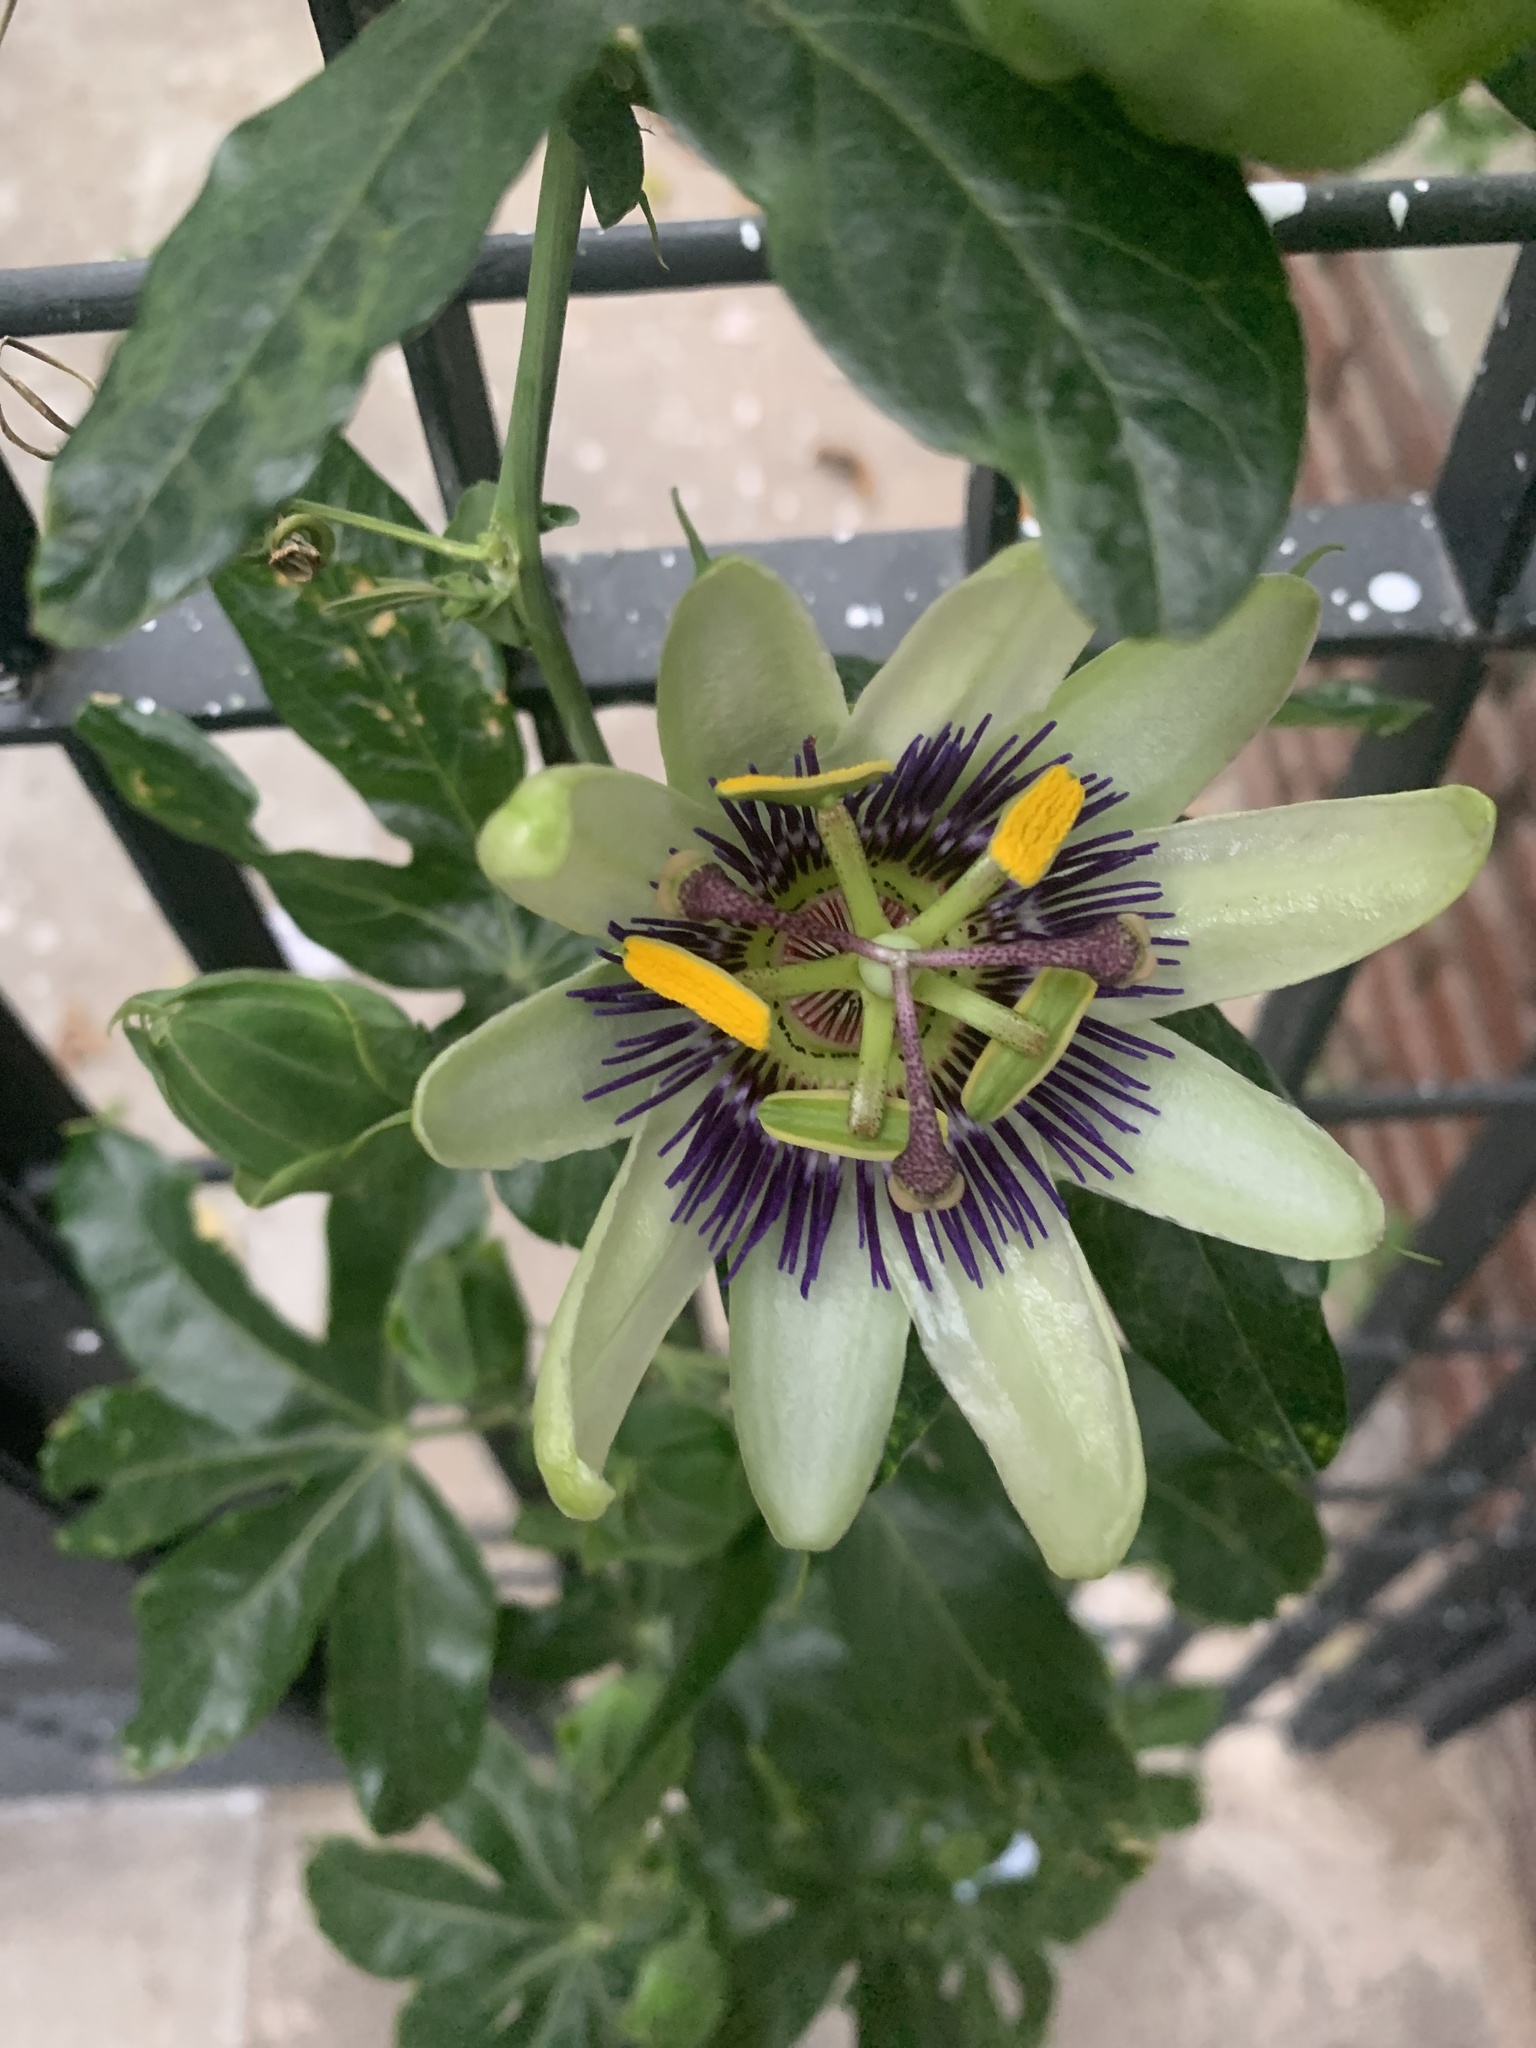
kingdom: Plantae
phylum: Tracheophyta
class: Magnoliopsida
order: Malpighiales
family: Passifloraceae
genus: Passiflora
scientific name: Passiflora caerulea
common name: Blue passionflower
